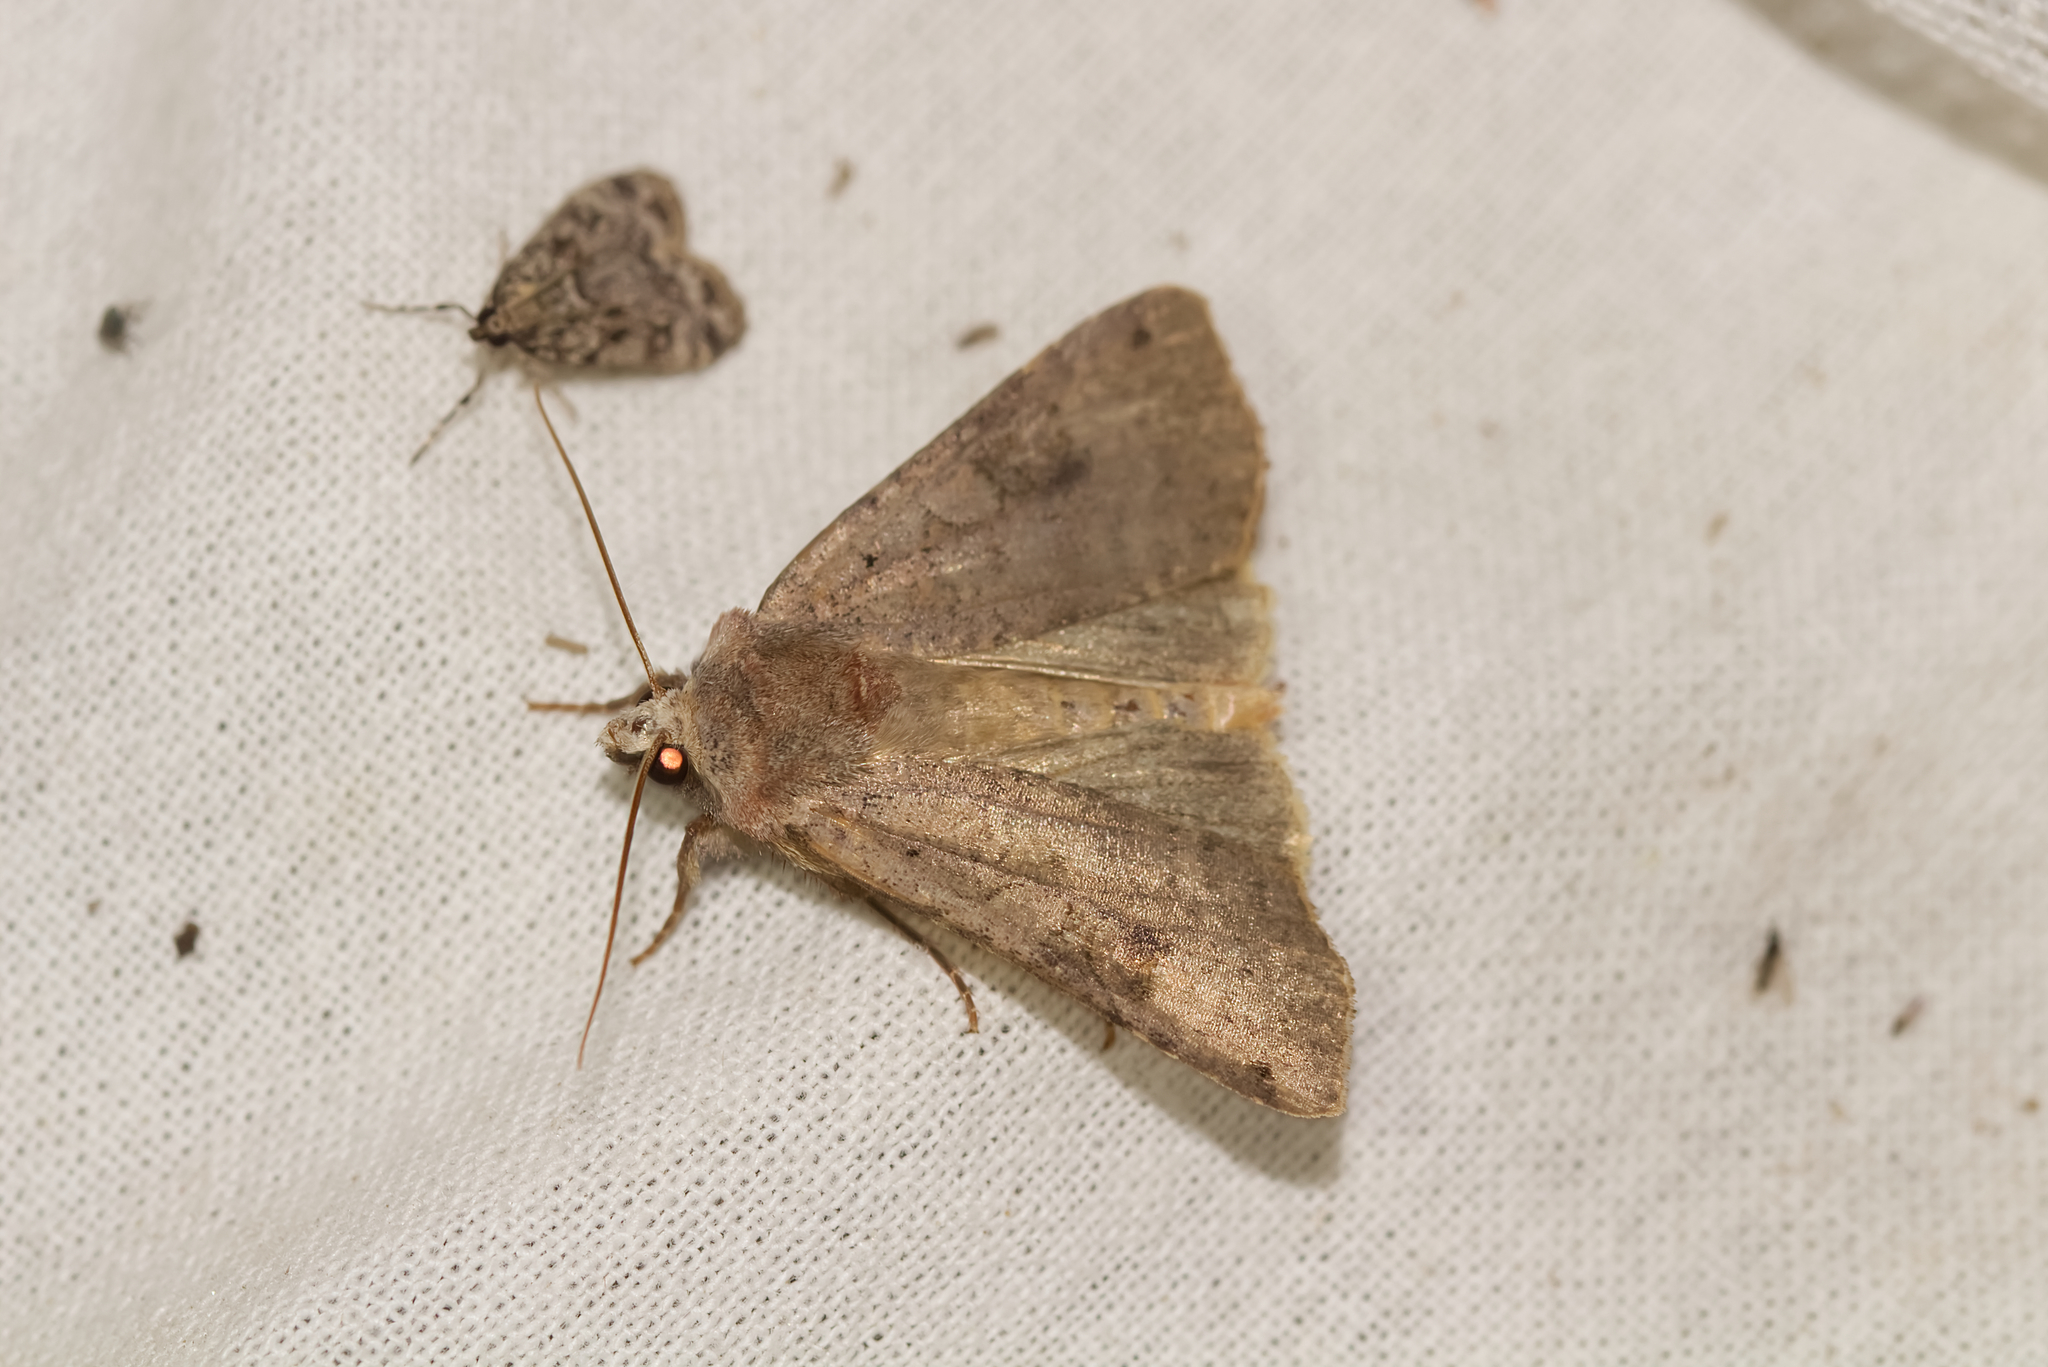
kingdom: Animalia
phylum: Arthropoda
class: Insecta
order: Lepidoptera
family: Noctuidae
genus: Xestia
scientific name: Xestia baja
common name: Dotted clay
